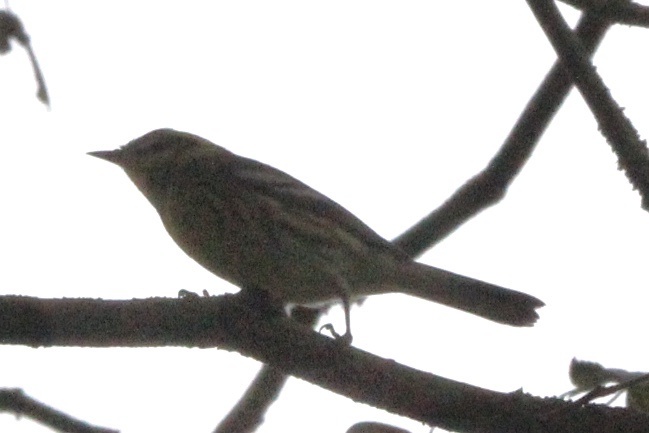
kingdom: Animalia
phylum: Chordata
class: Aves
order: Passeriformes
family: Parulidae
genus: Setophaga
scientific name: Setophaga coronata
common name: Myrtle warbler
